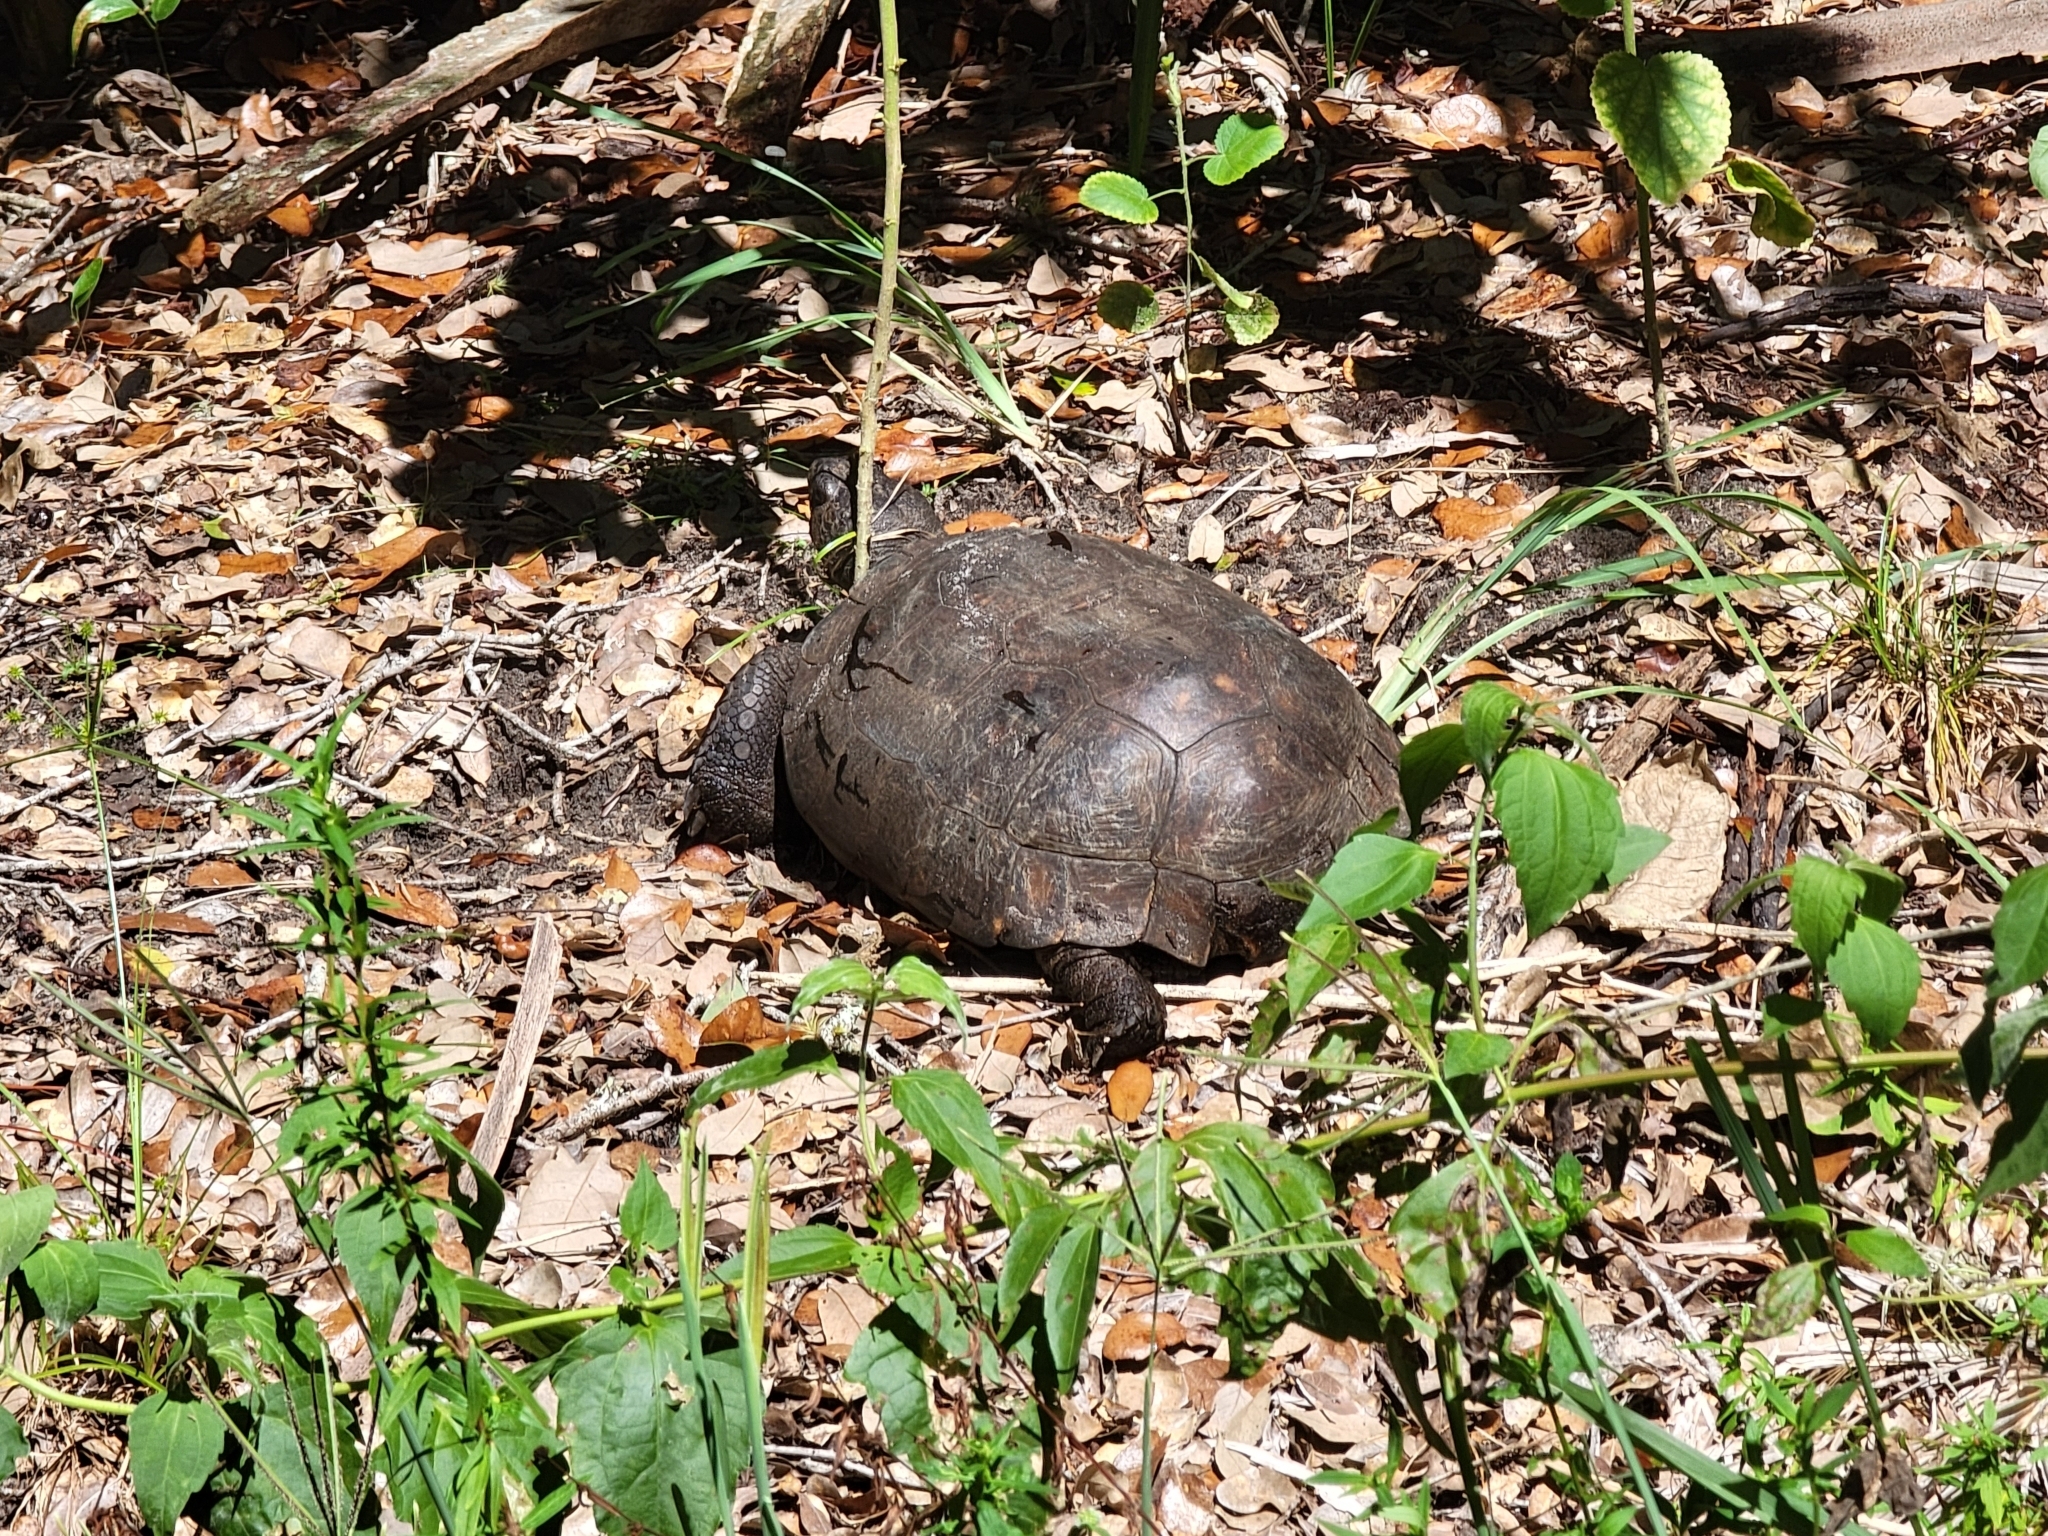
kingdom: Animalia
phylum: Chordata
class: Testudines
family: Testudinidae
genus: Gopherus
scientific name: Gopherus polyphemus
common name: Florida gopher tortoise
